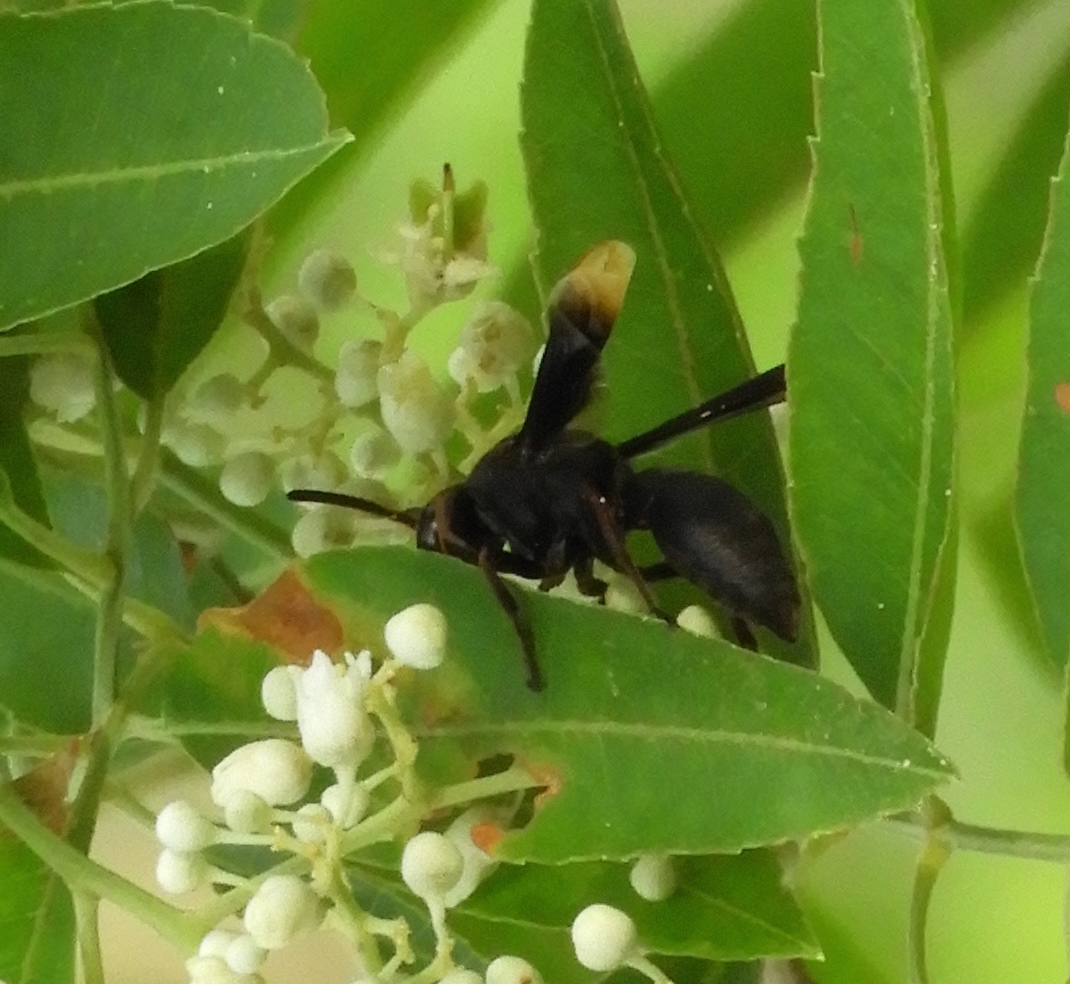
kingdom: Animalia
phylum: Arthropoda
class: Insecta
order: Hymenoptera
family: Vespidae
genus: Parachartergus
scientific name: Parachartergus apicalis
